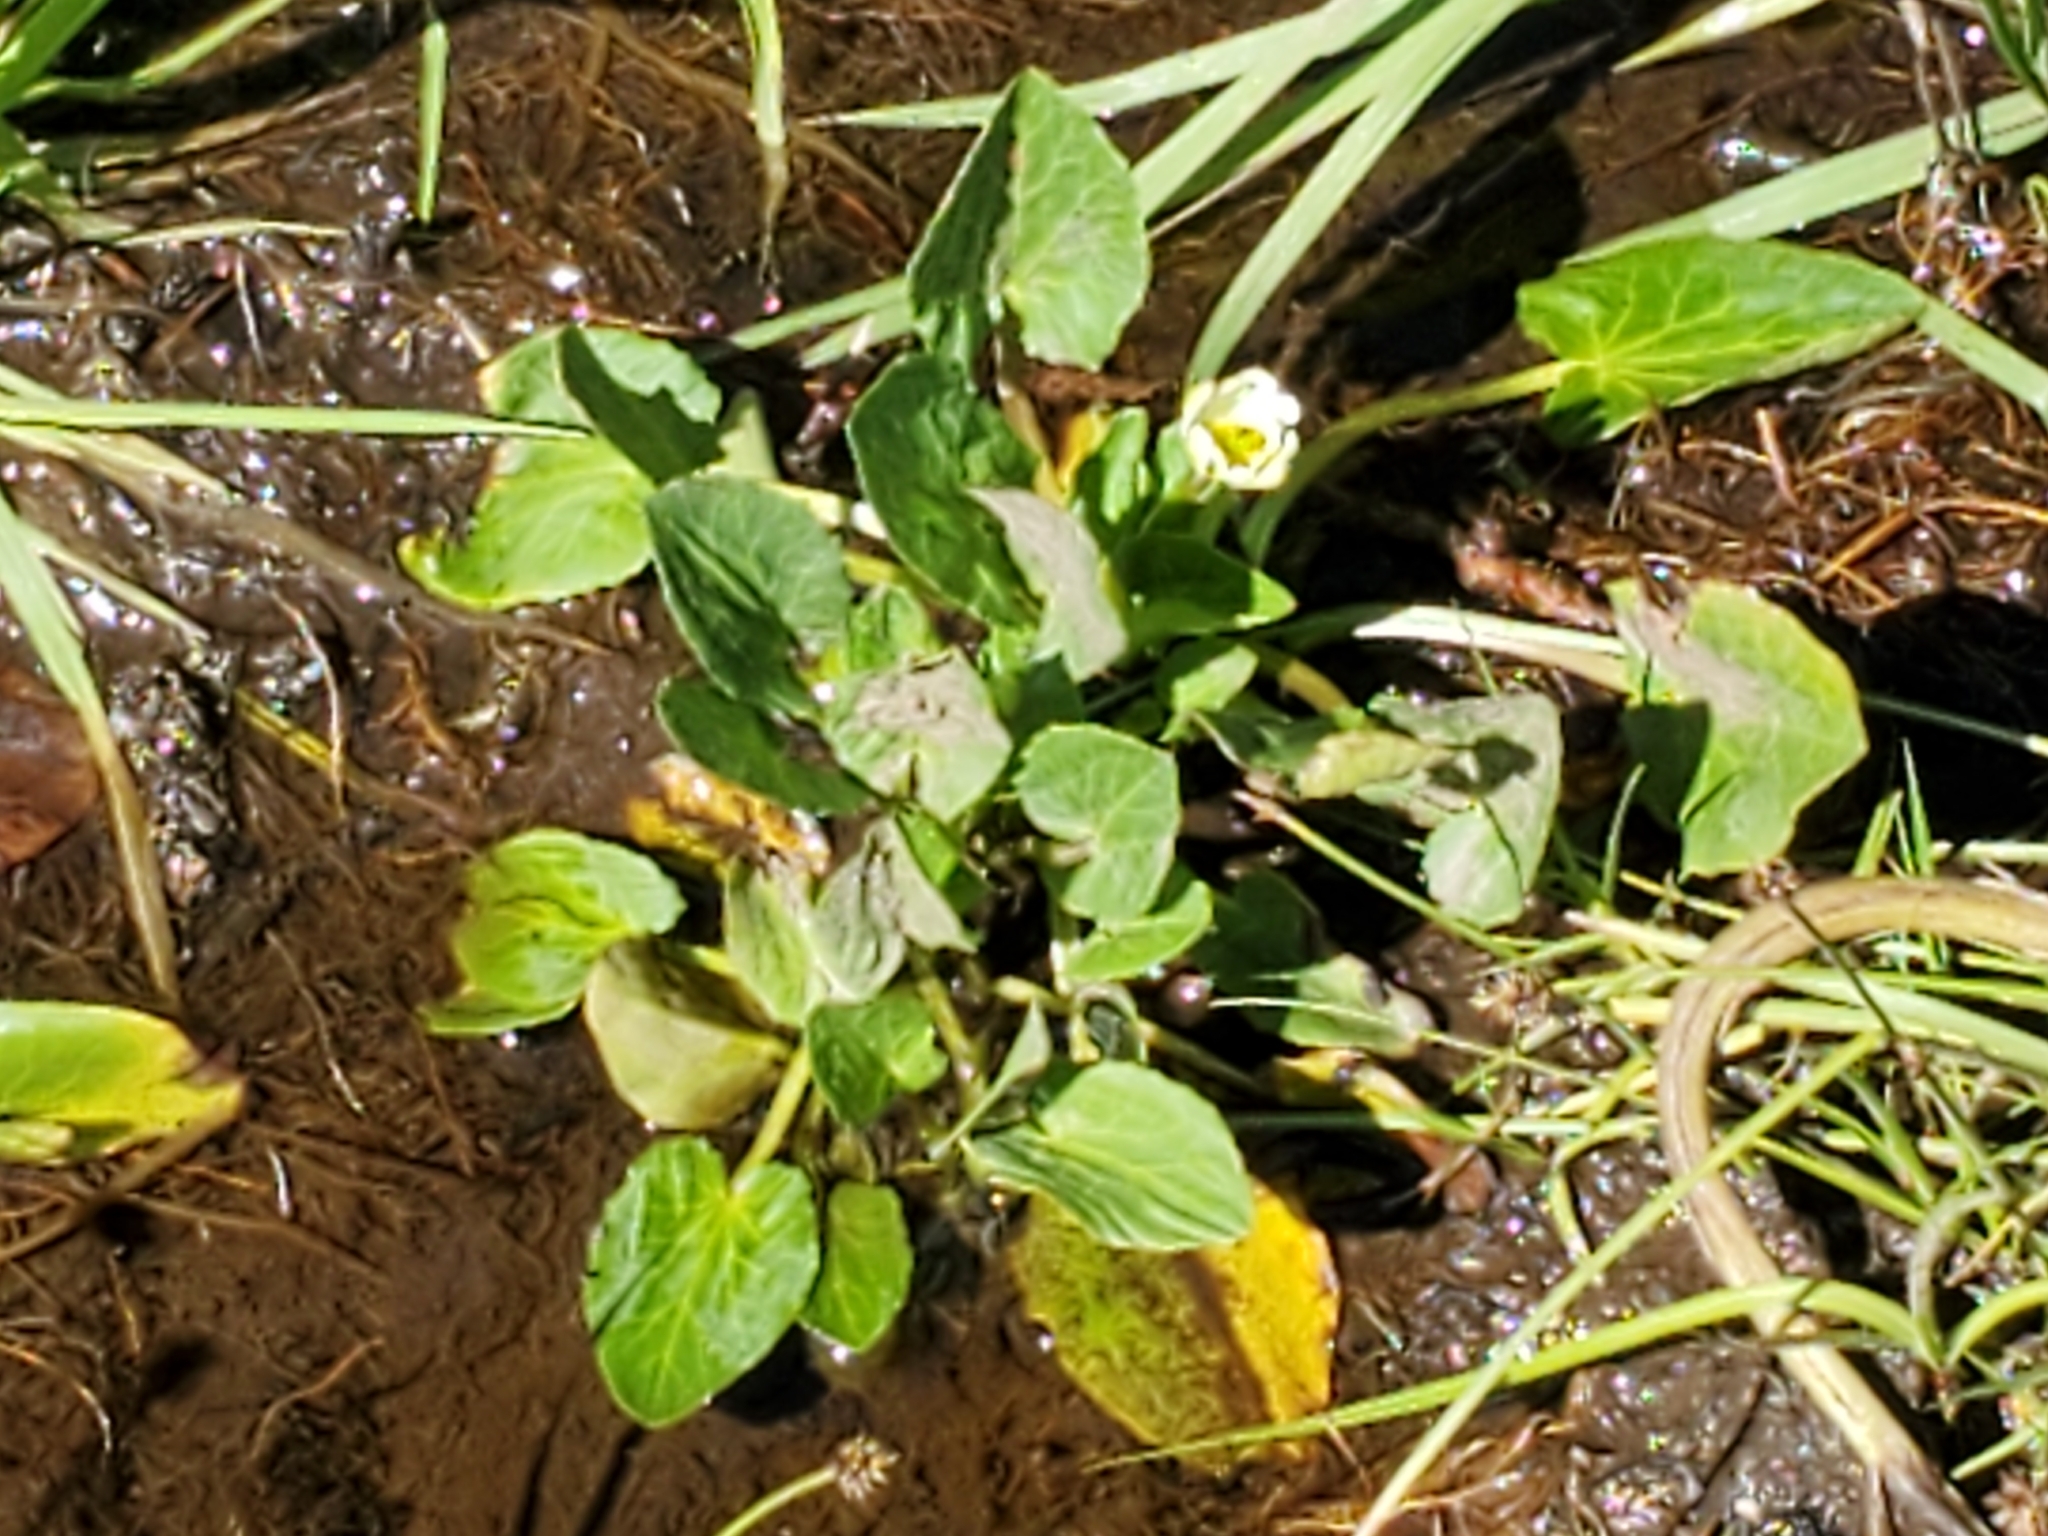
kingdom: Plantae
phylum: Tracheophyta
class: Magnoliopsida
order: Ranunculales
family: Ranunculaceae
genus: Caltha
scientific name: Caltha leptosepala
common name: Elkslip
